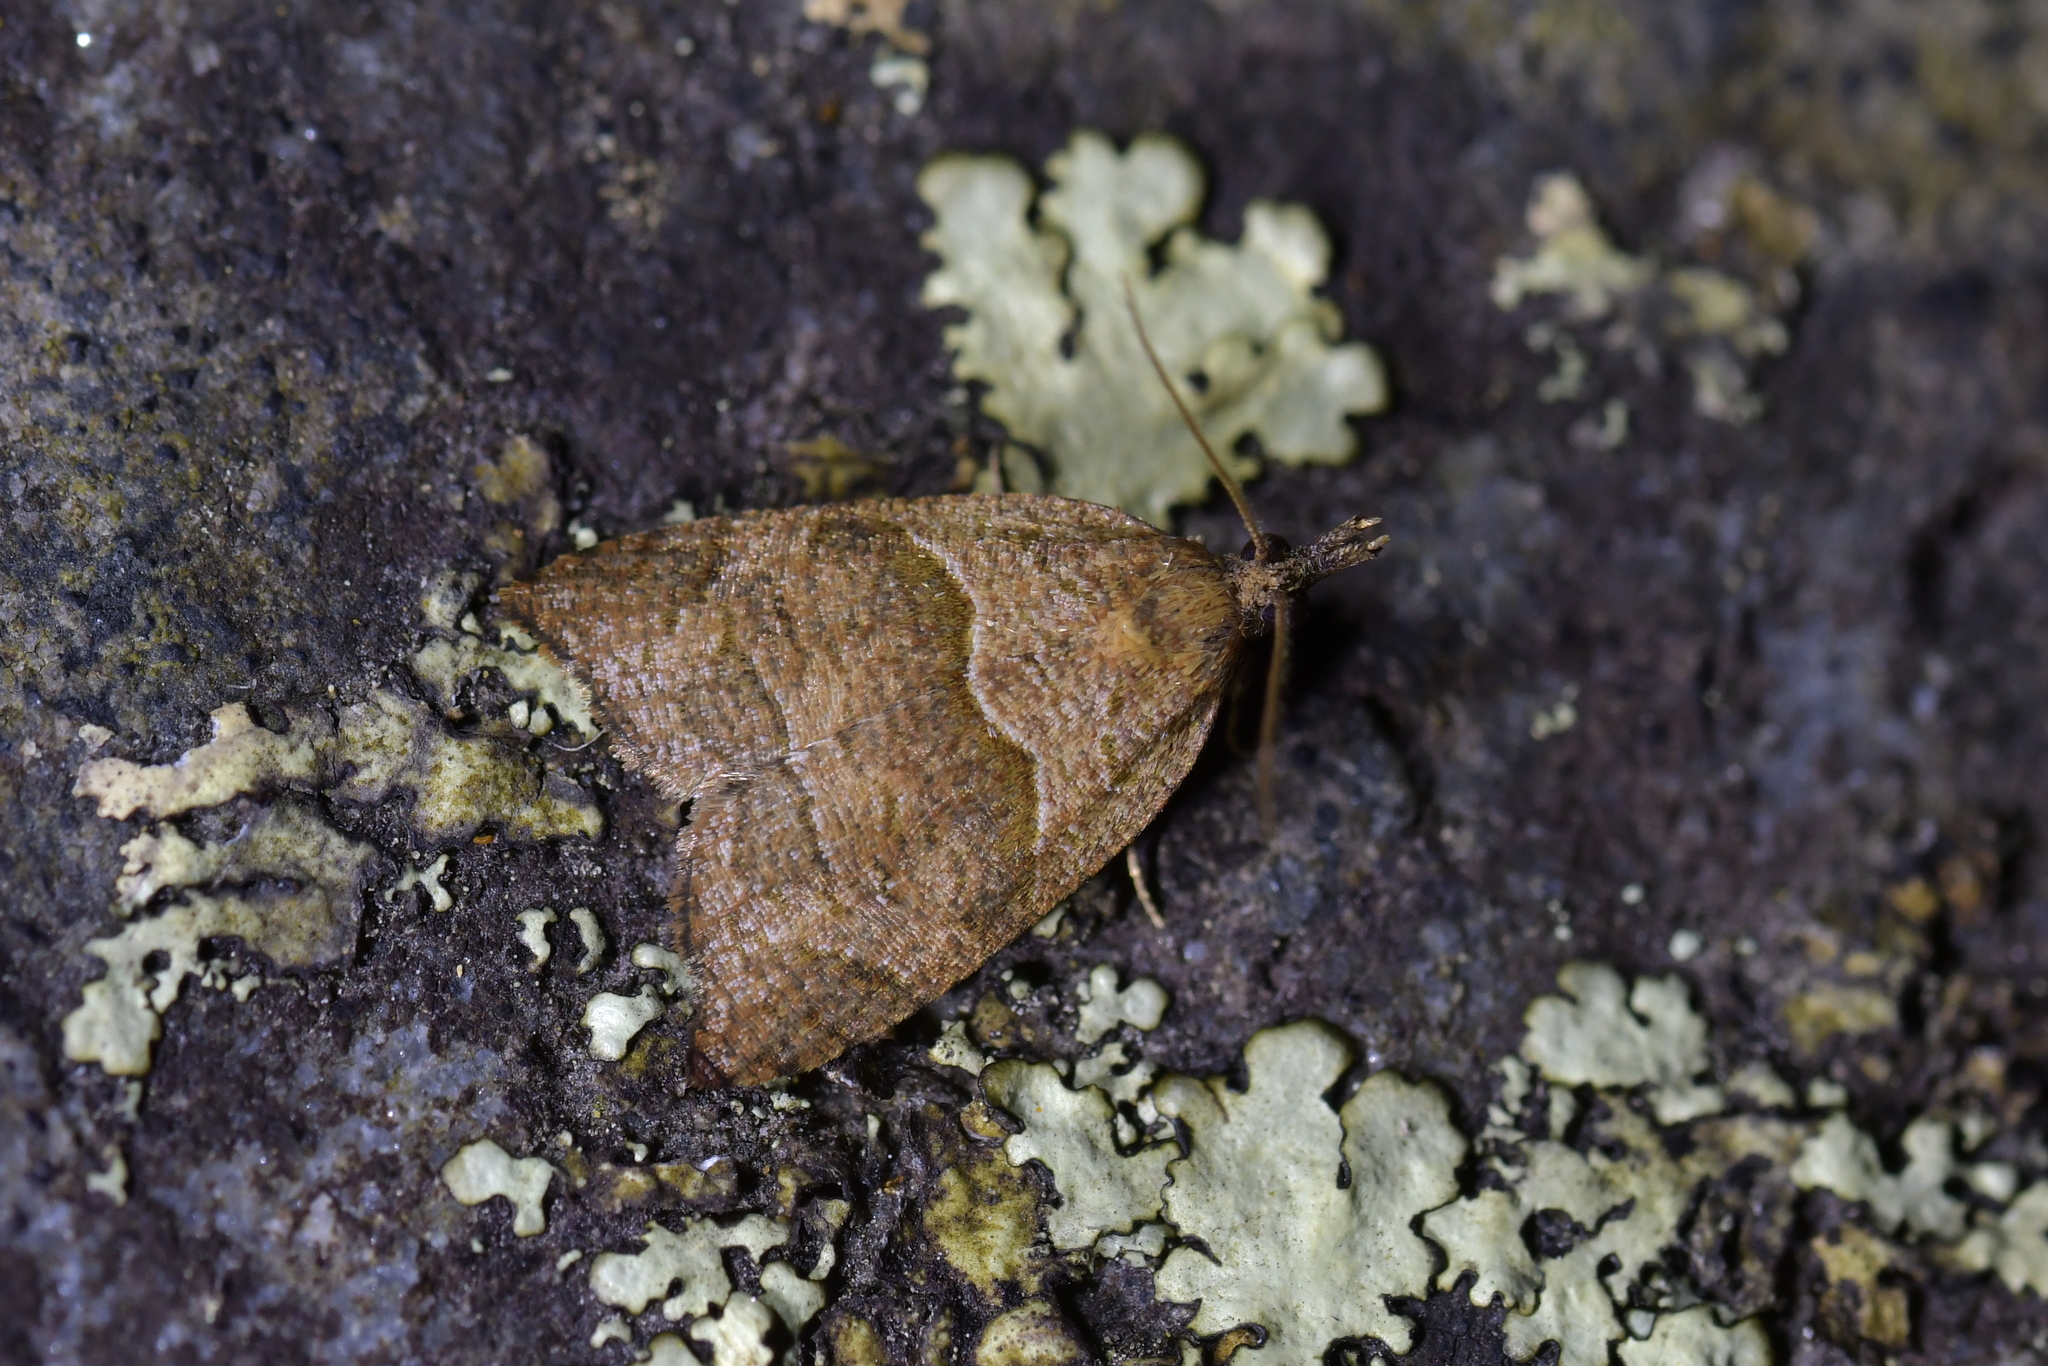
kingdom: Animalia
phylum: Arthropoda
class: Insecta
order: Lepidoptera
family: Tortricidae
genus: Cnephasia
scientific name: Cnephasia incertana
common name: Light grey tortrix
